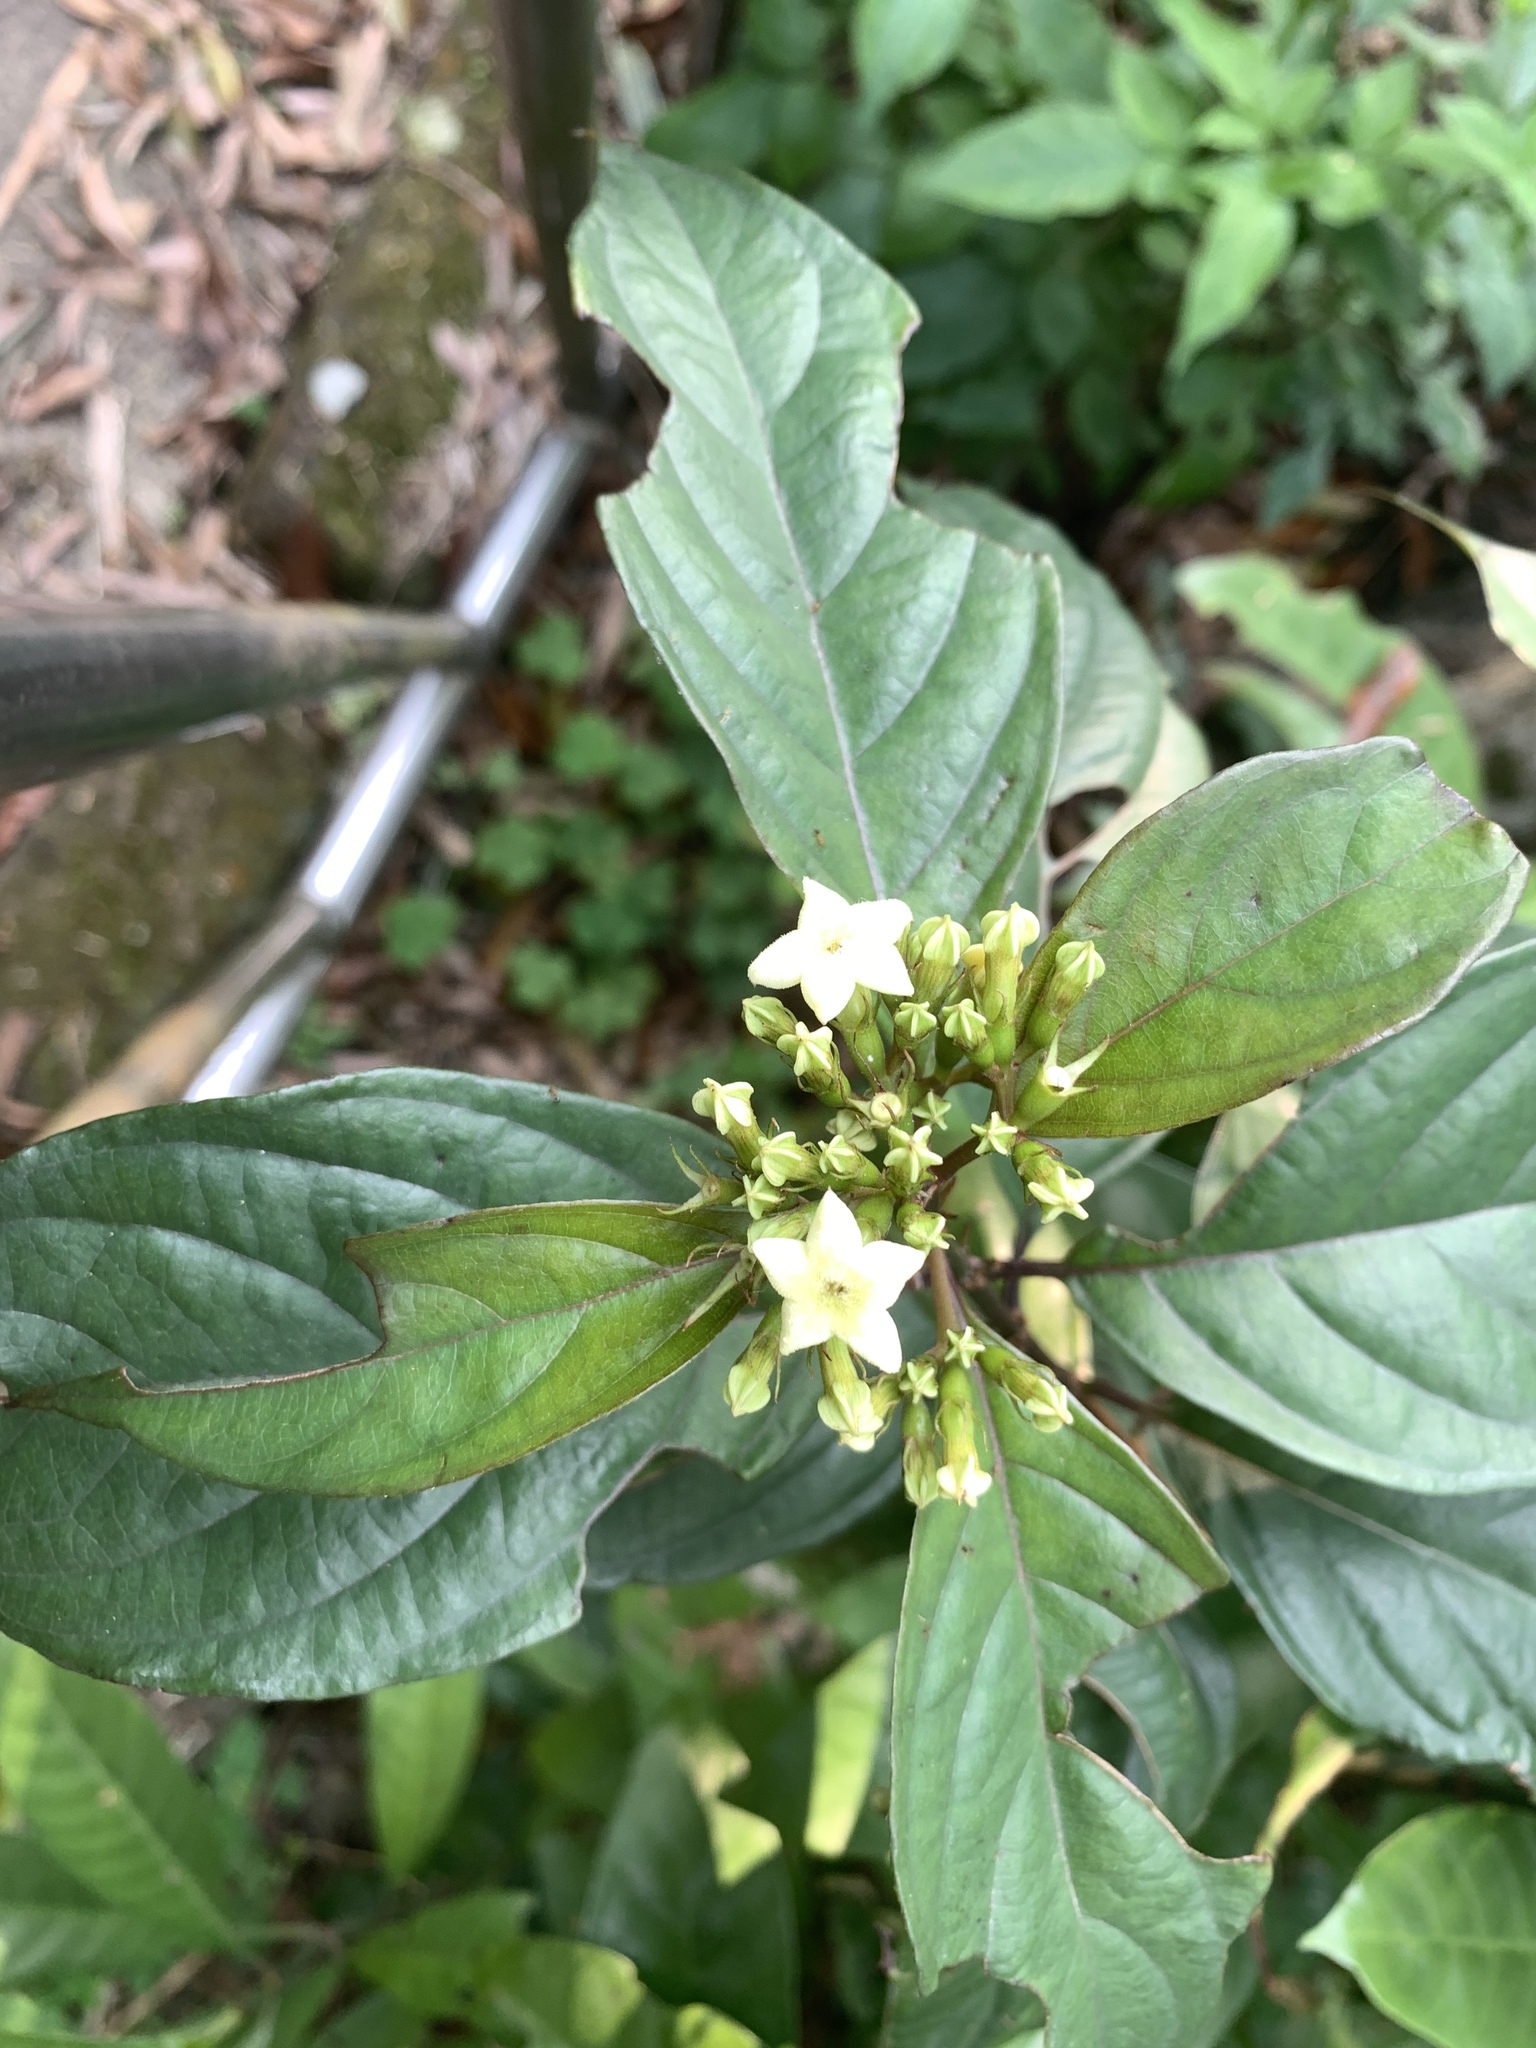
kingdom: Plantae
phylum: Tracheophyta
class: Magnoliopsida
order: Gentianales
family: Rubiaceae
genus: Mussaenda
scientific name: Mussaenda parviflora
